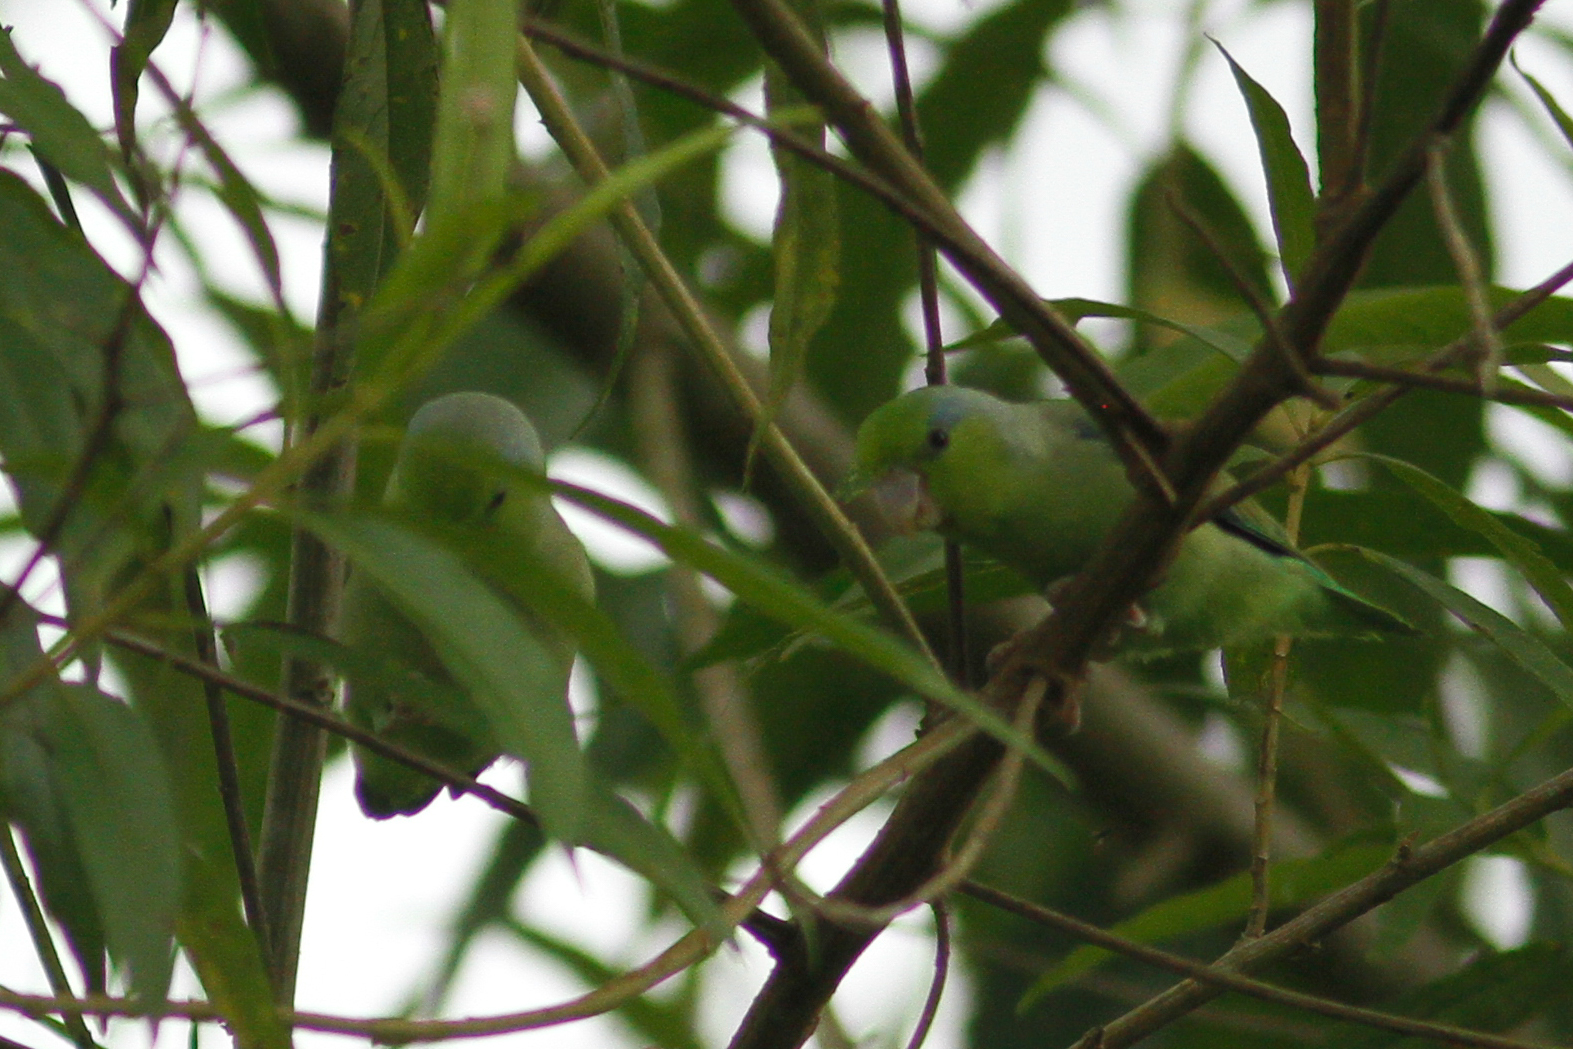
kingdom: Animalia
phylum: Chordata
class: Aves
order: Psittaciformes
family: Psittacidae
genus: Forpus
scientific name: Forpus coelestis
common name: Pacific parrotlet
